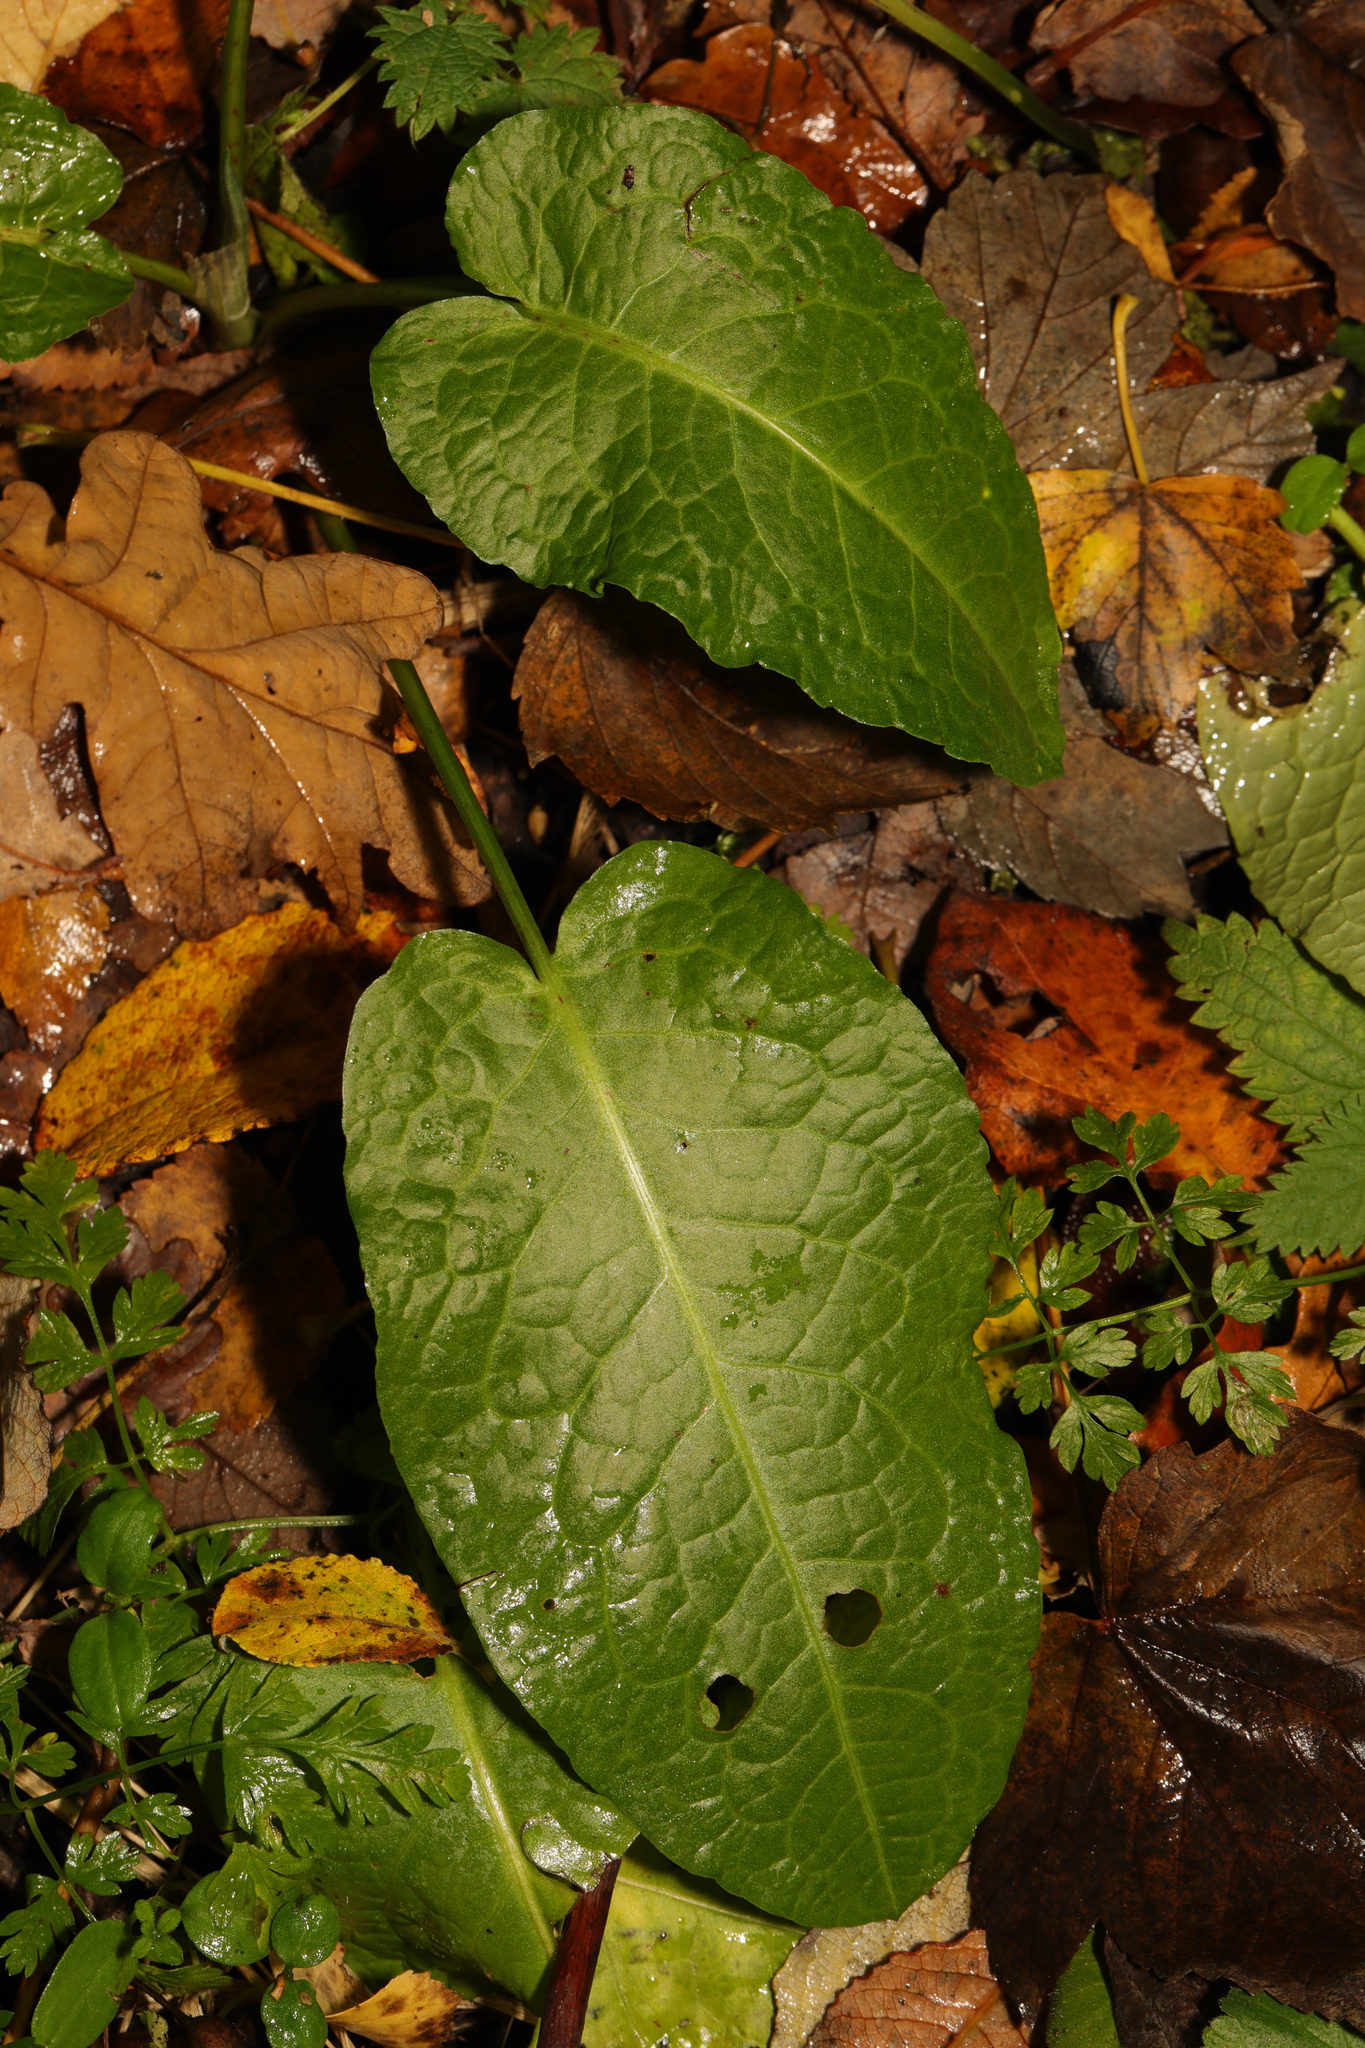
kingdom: Plantae
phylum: Tracheophyta
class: Magnoliopsida
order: Caryophyllales
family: Polygonaceae
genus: Rumex
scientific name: Rumex obtusifolius
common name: Bitter dock
